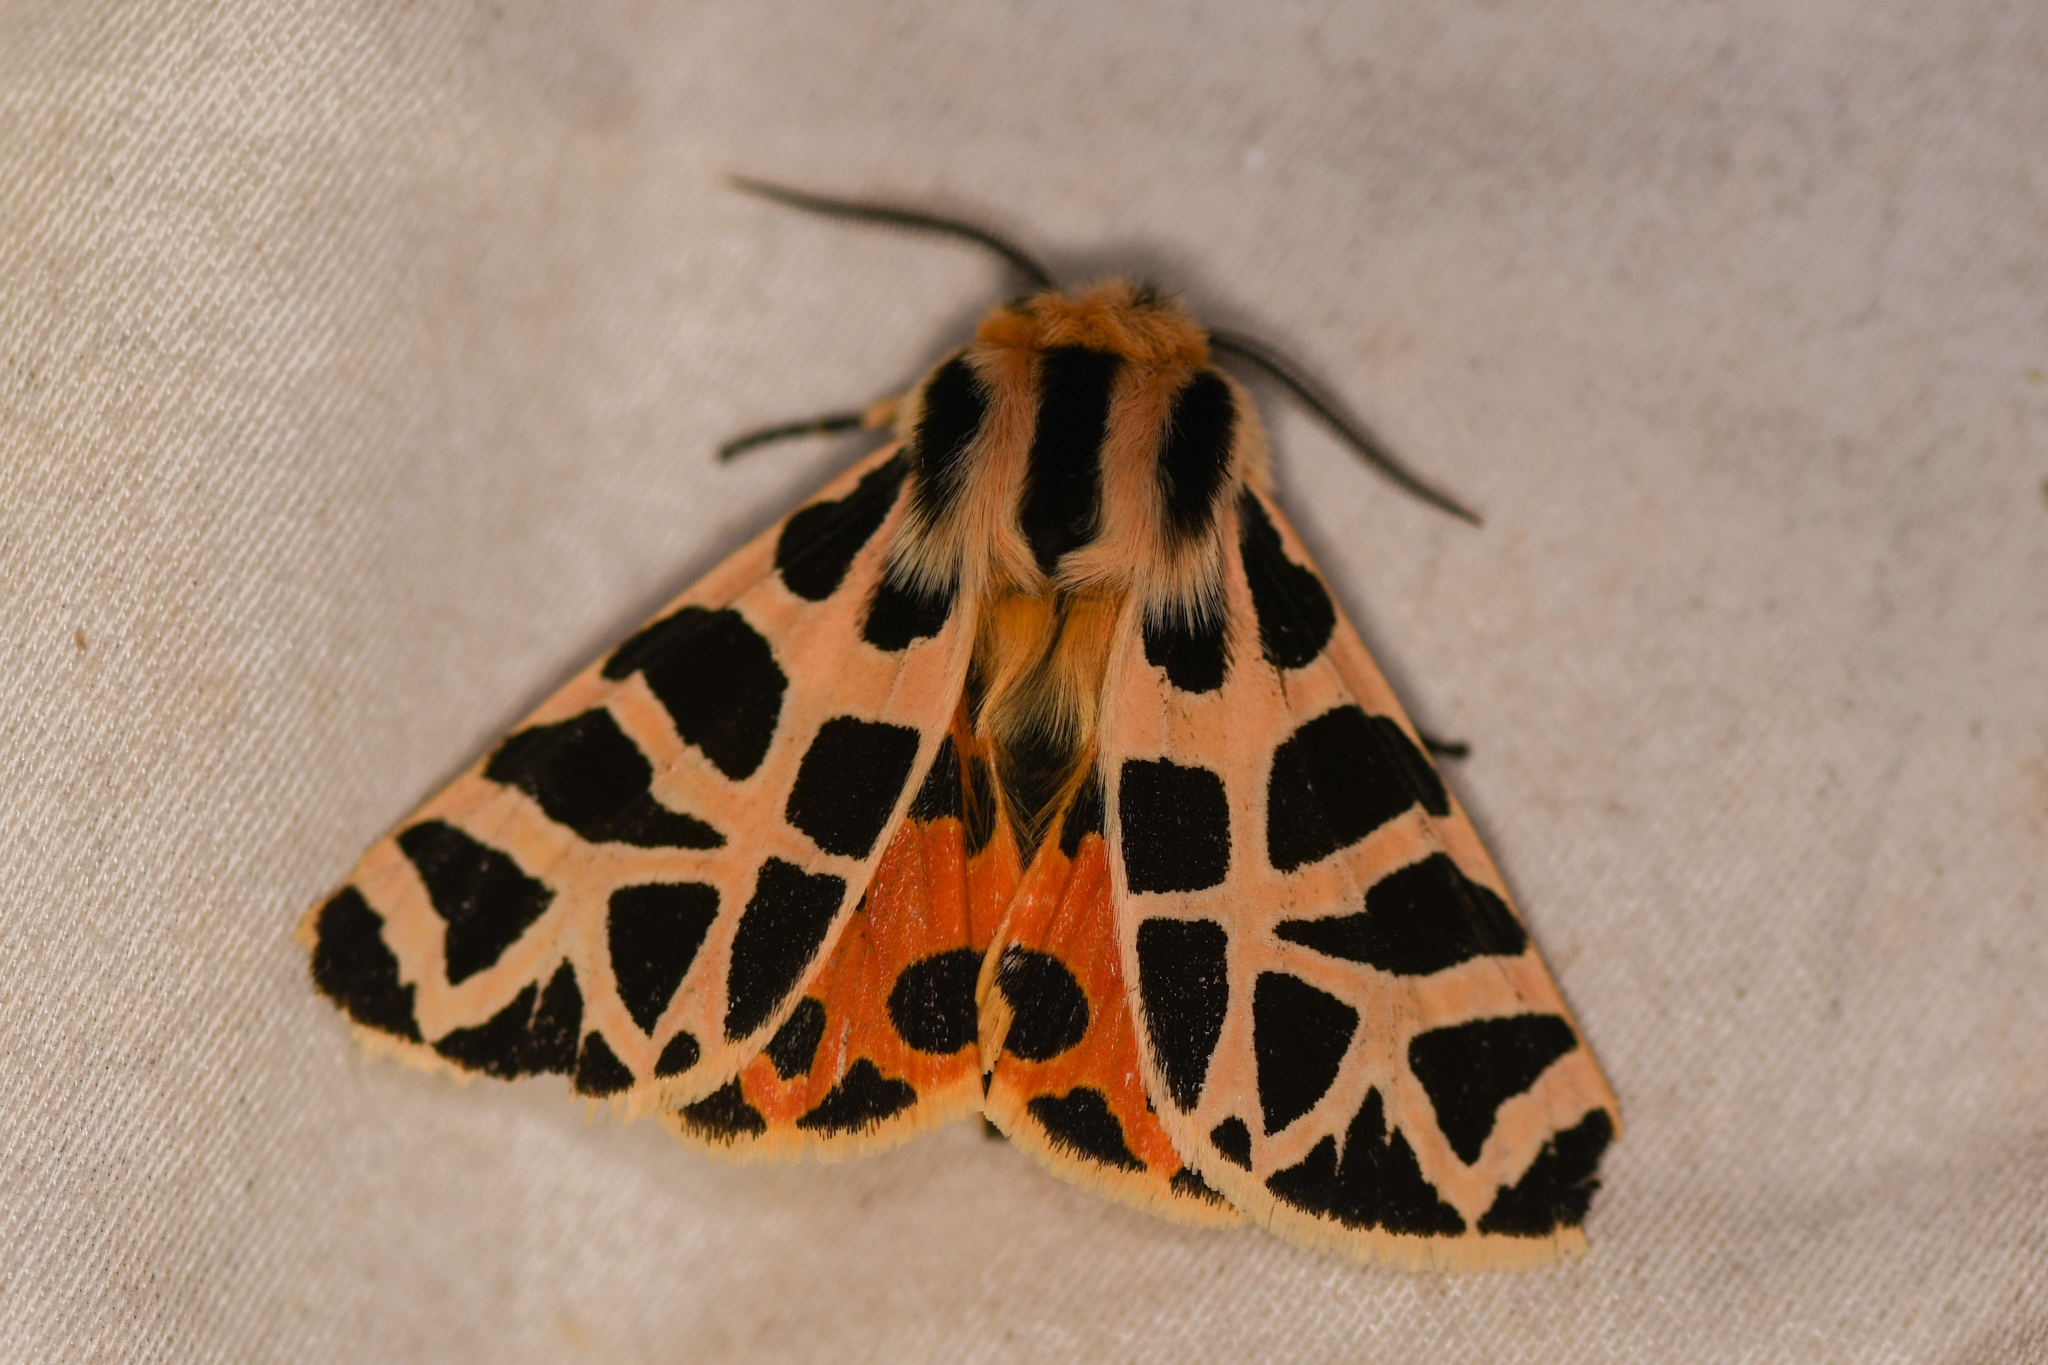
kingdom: Animalia
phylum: Arthropoda
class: Insecta
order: Lepidoptera
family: Erebidae
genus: Apantesis
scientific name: Apantesis
